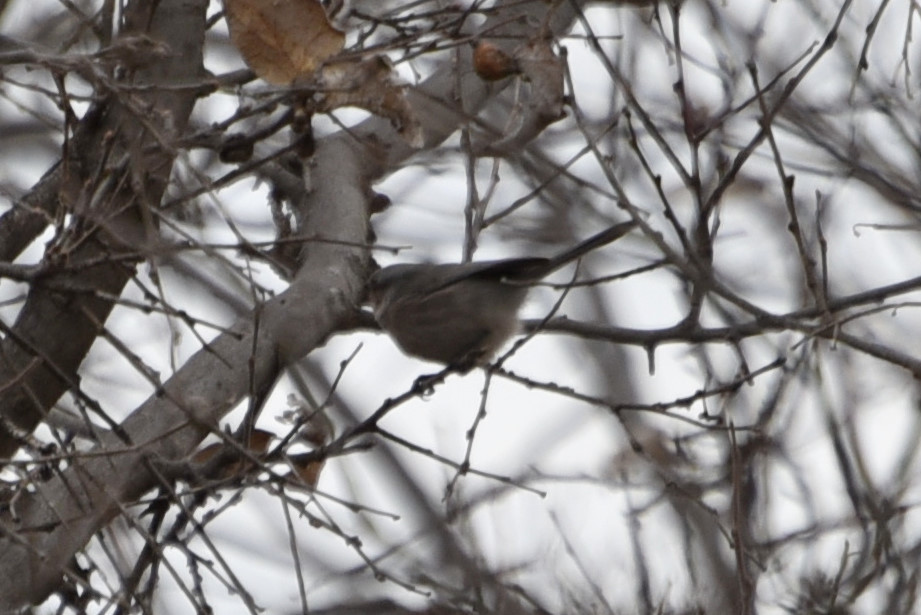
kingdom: Animalia
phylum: Chordata
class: Aves
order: Passeriformes
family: Aegithalidae
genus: Psaltriparus
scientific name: Psaltriparus minimus
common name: American bushtit
